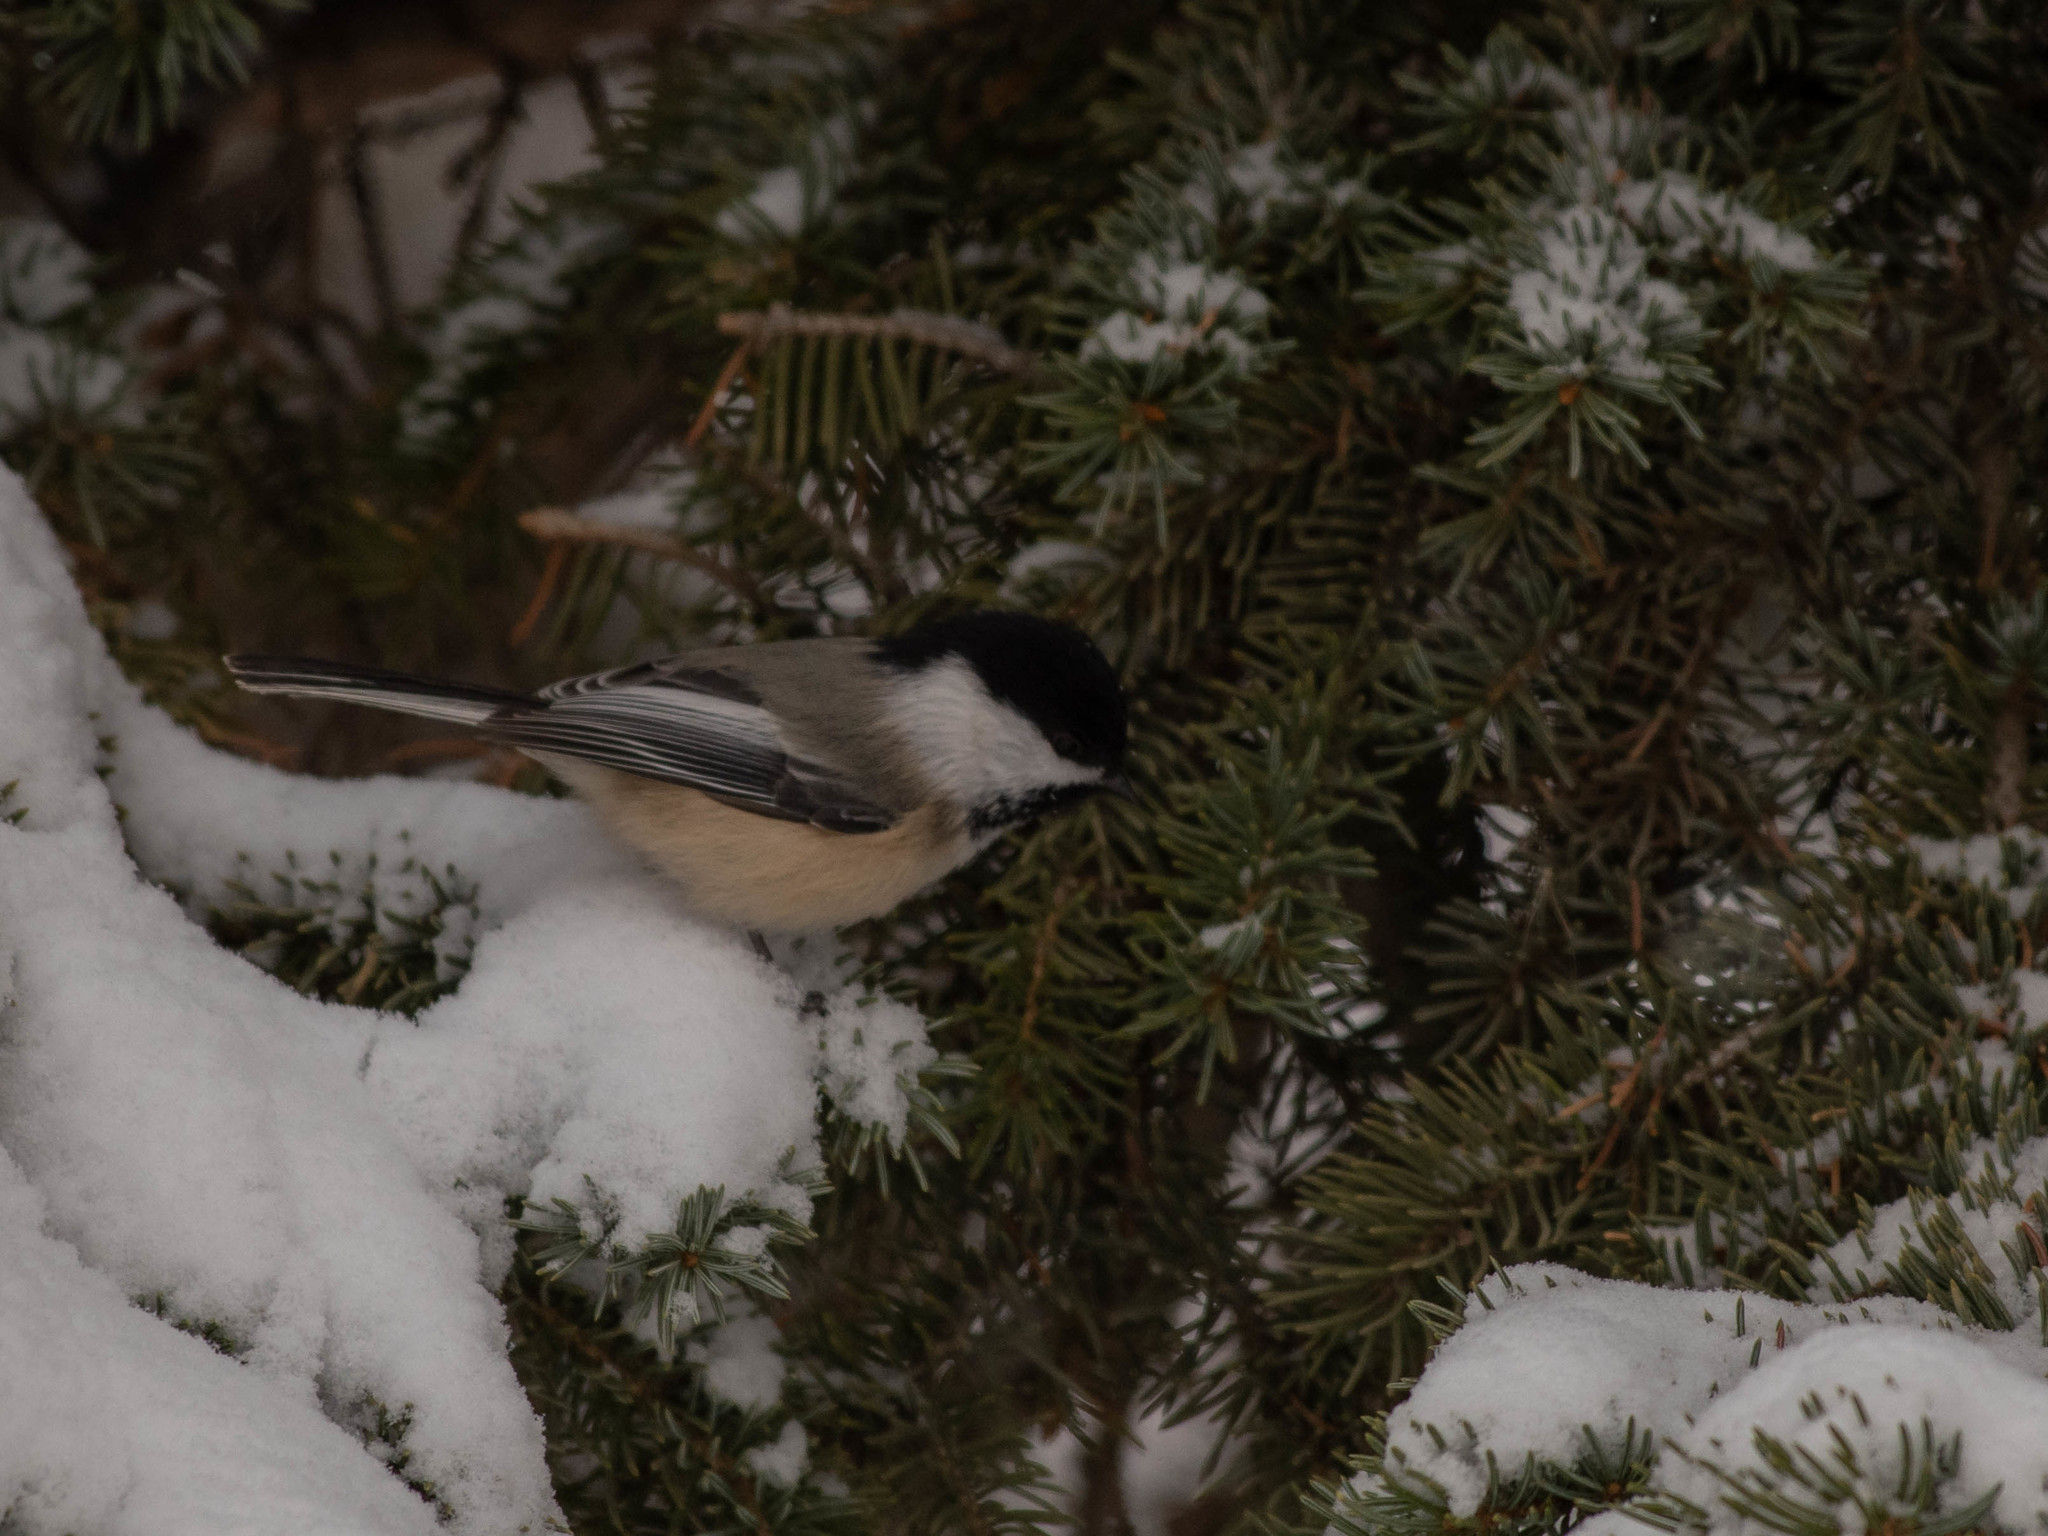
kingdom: Animalia
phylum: Chordata
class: Aves
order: Passeriformes
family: Paridae
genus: Poecile
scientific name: Poecile atricapillus
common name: Black-capped chickadee
